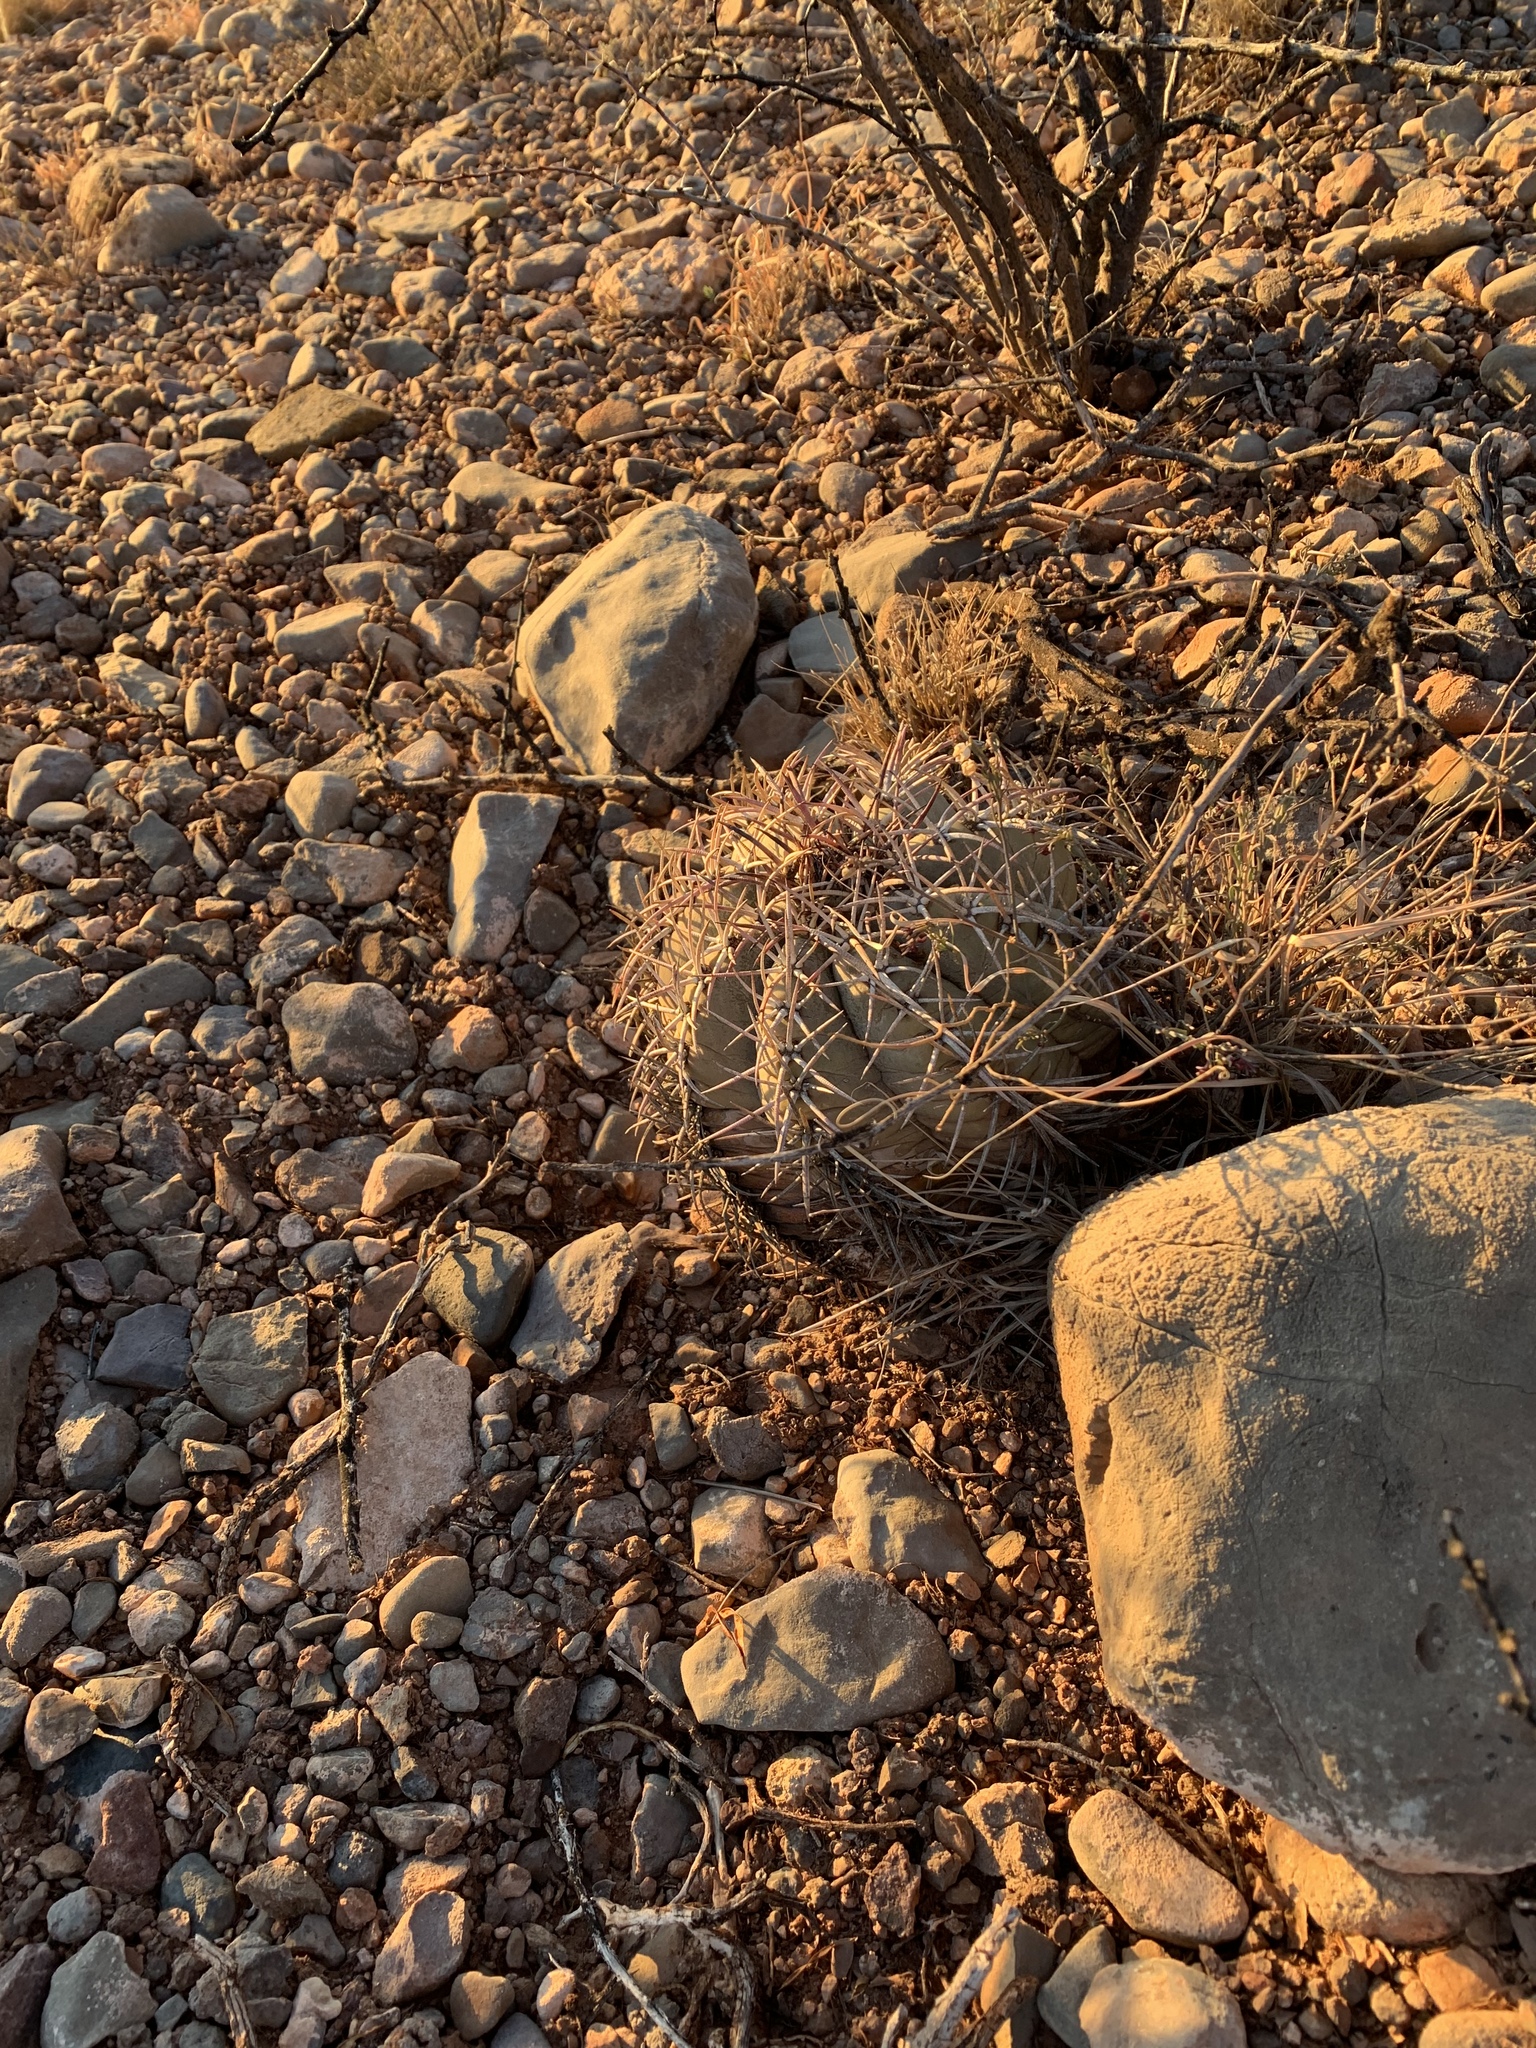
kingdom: Plantae
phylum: Tracheophyta
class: Magnoliopsida
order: Caryophyllales
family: Cactaceae
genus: Echinocactus
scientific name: Echinocactus horizonthalonius
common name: Devilshead
